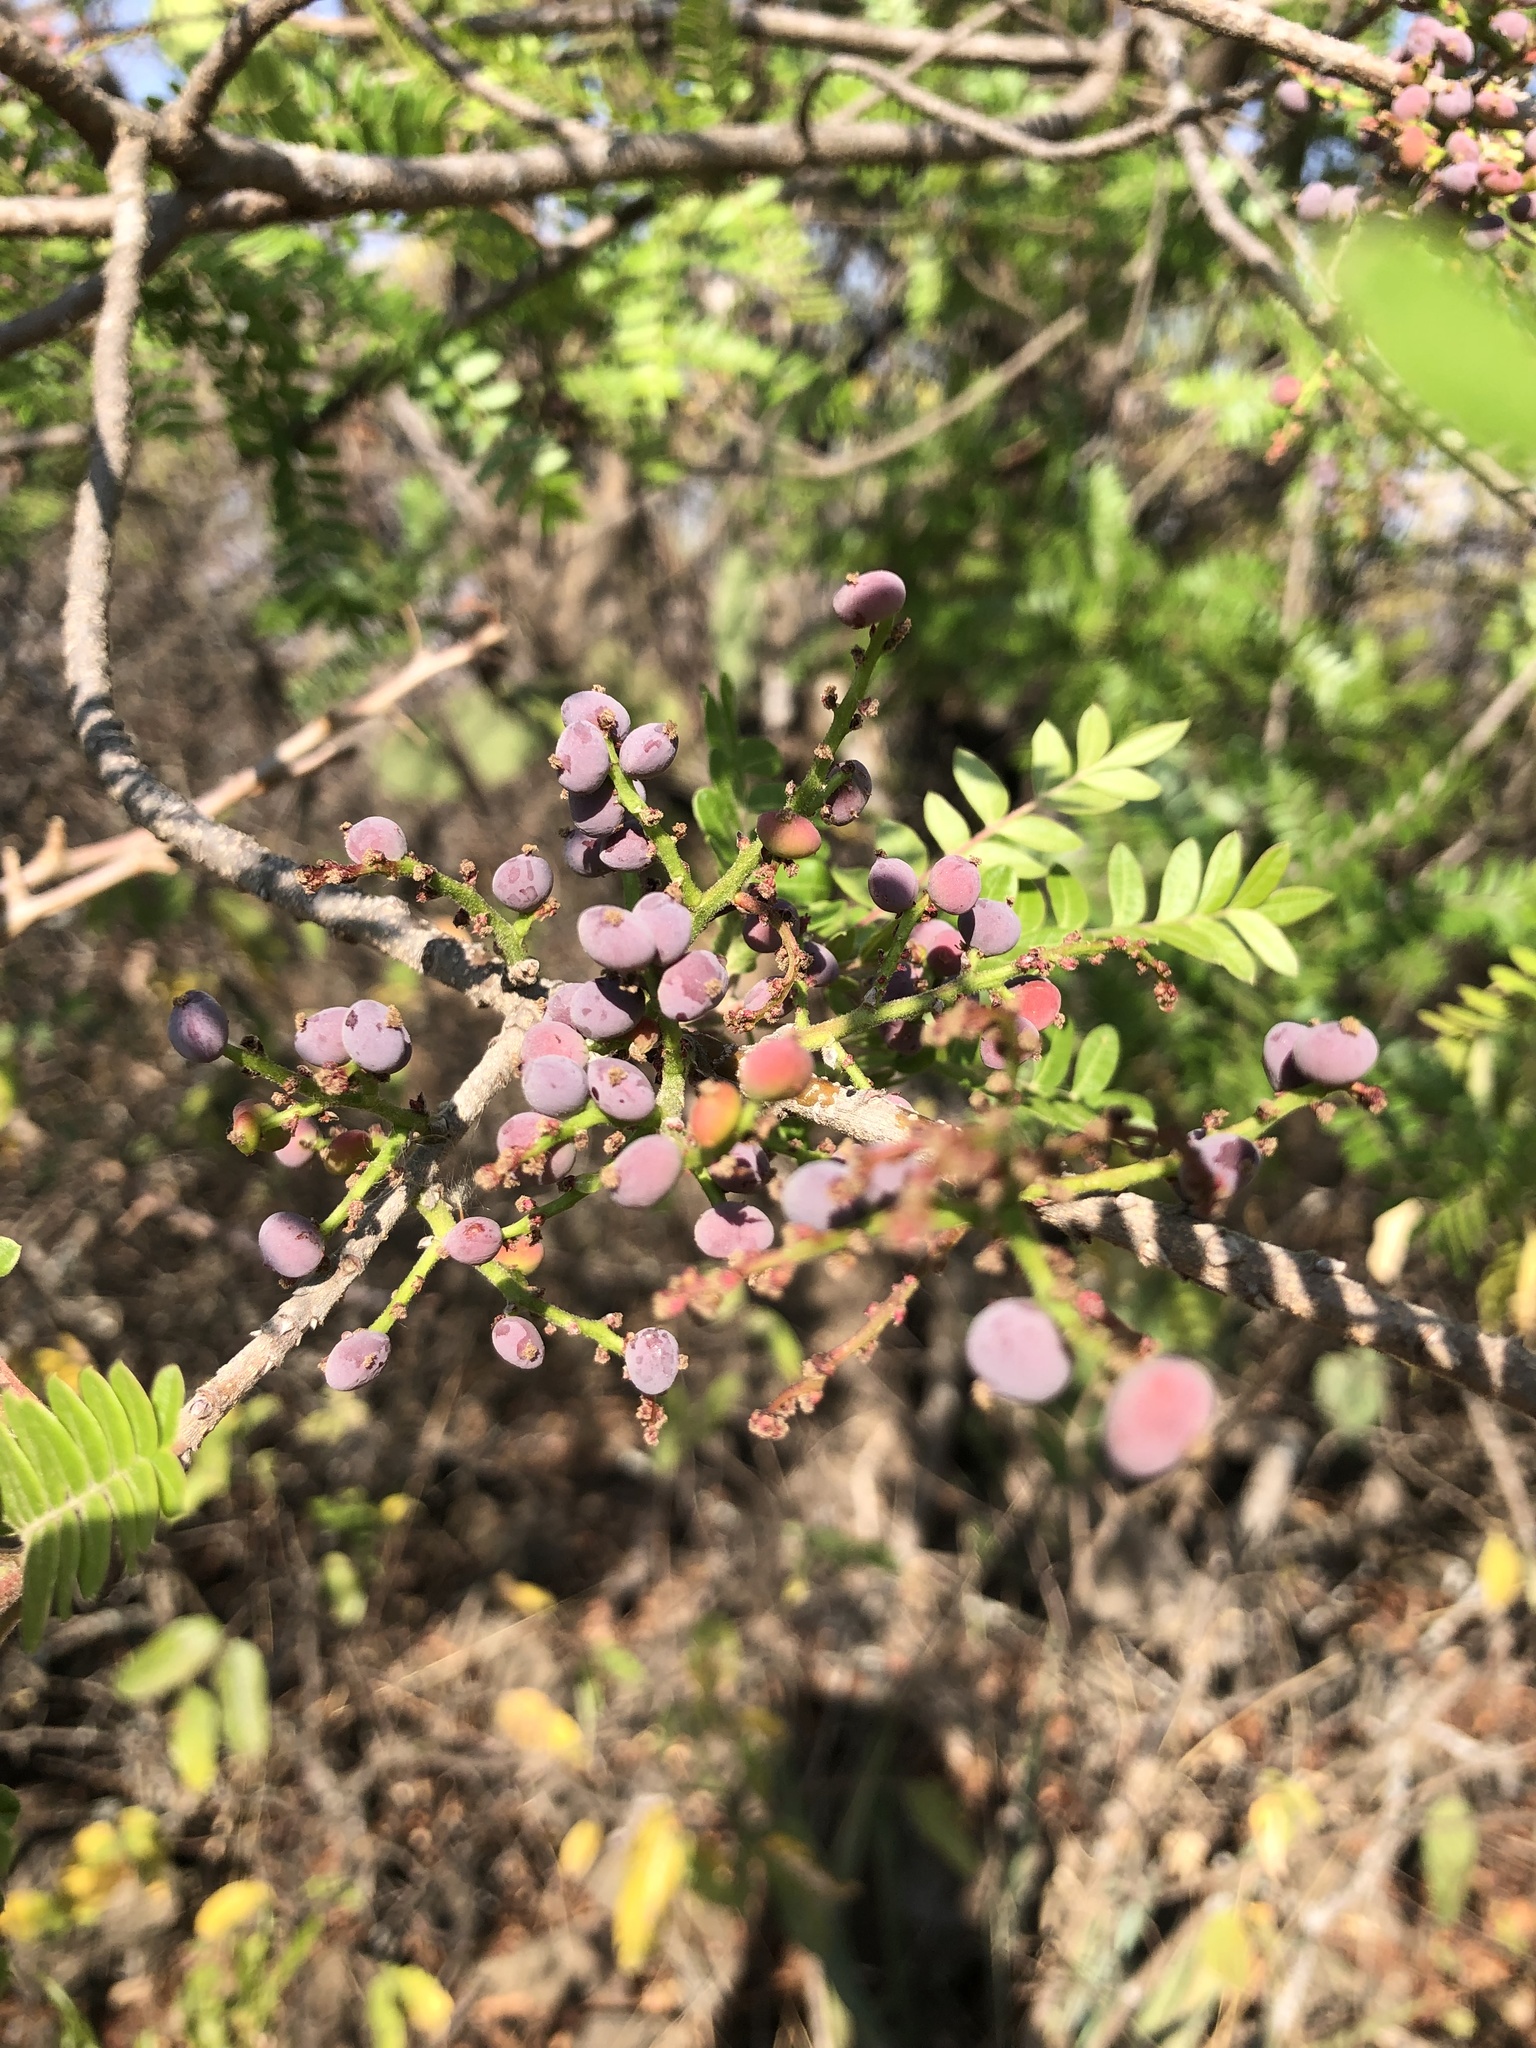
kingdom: Plantae
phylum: Tracheophyta
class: Magnoliopsida
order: Sapindales
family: Anacardiaceae
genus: Pistacia
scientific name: Pistacia mexicana
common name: Mexican pistachio
